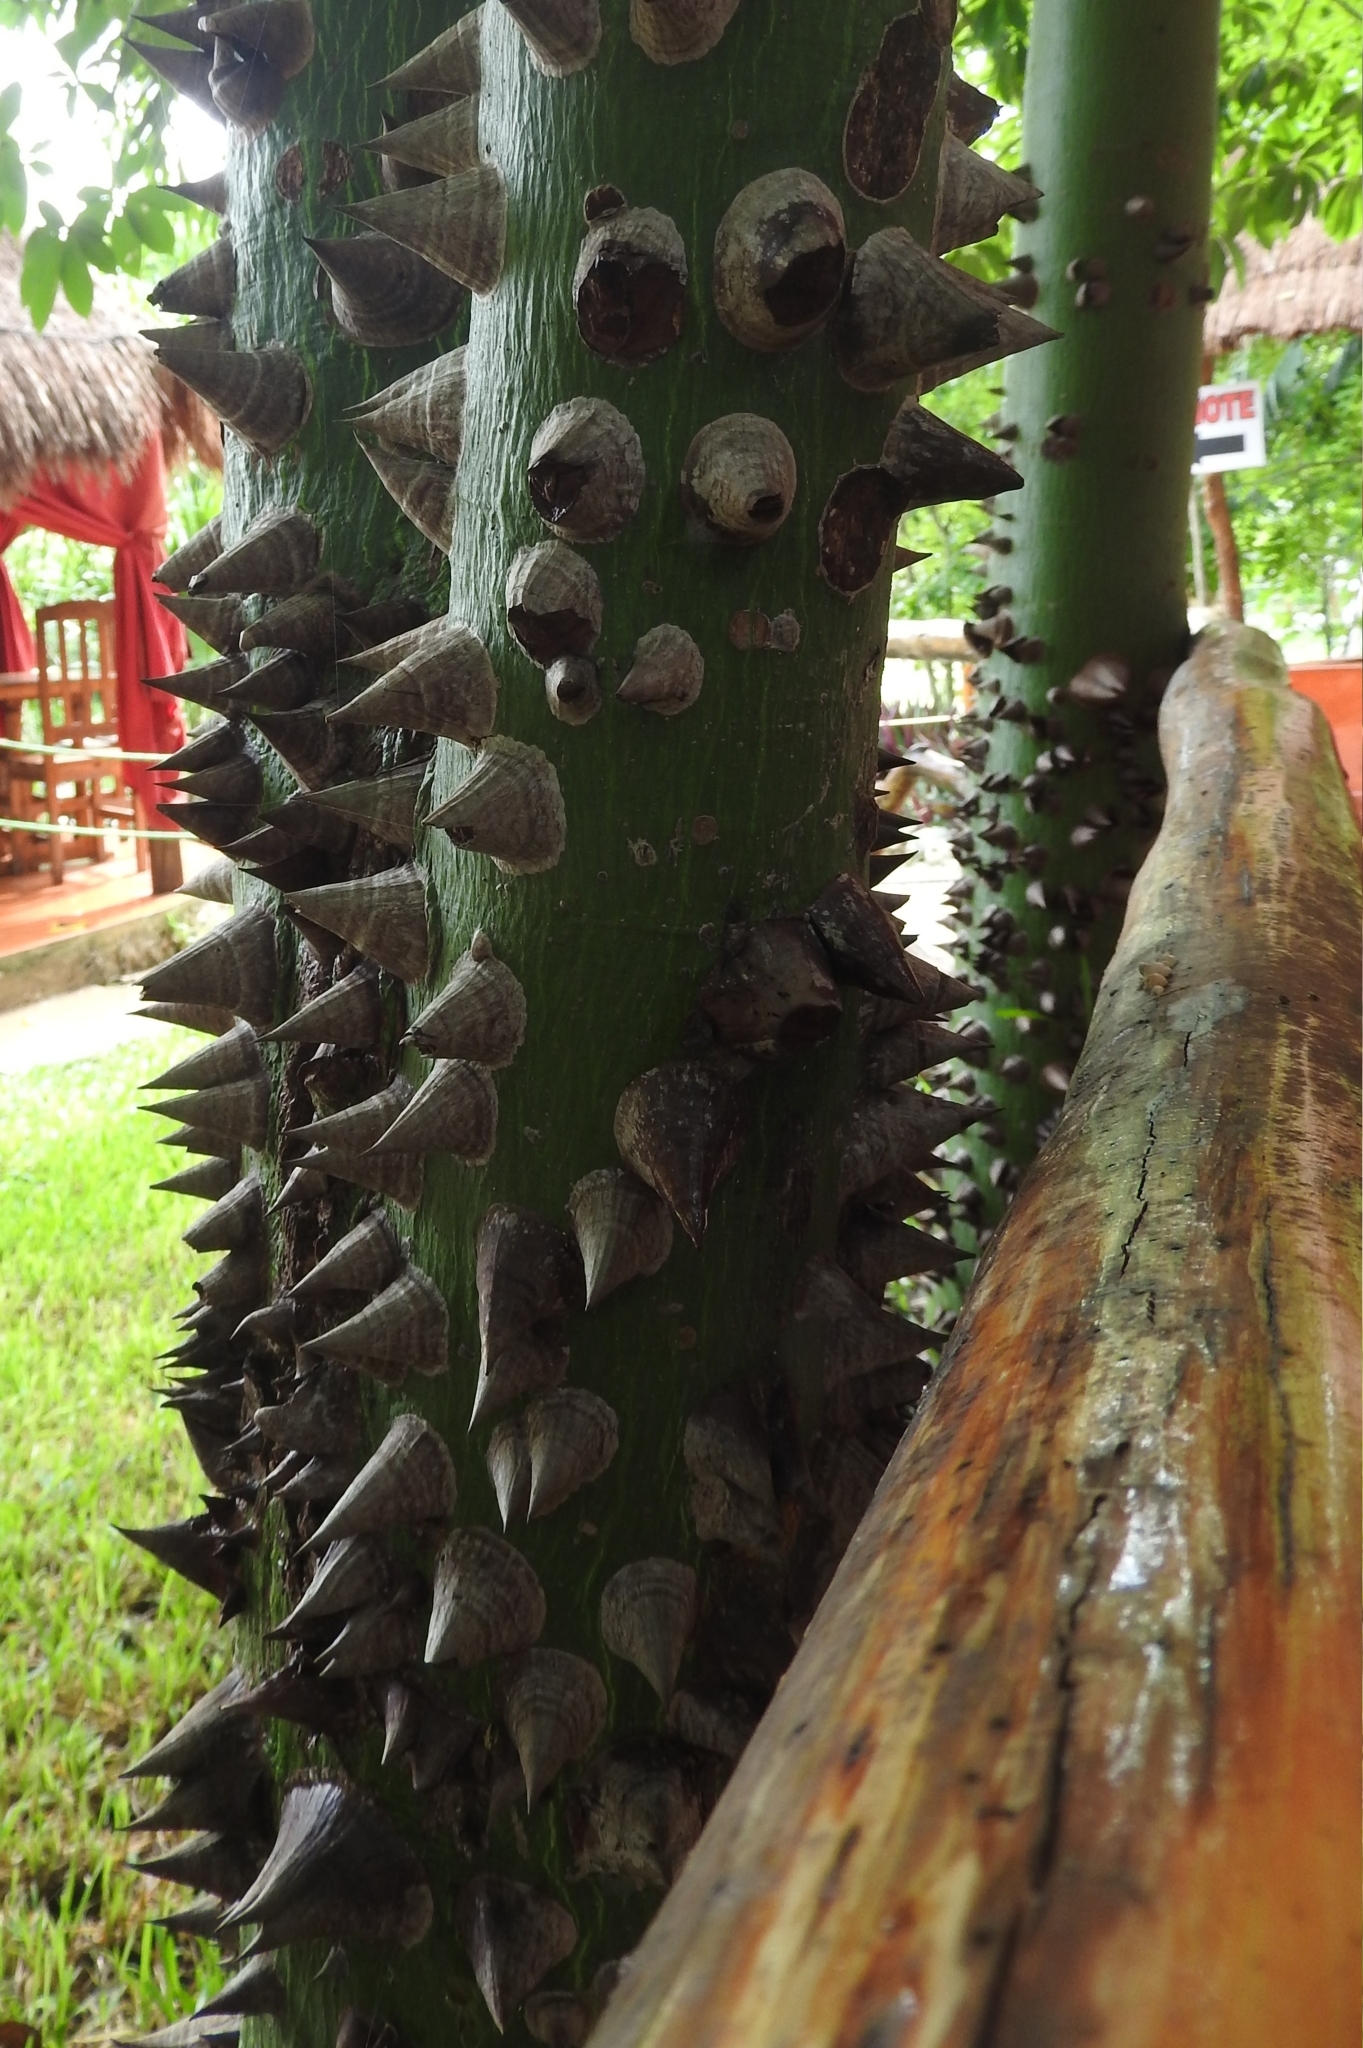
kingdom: Plantae
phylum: Tracheophyta
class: Magnoliopsida
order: Malvales
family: Malvaceae
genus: Ceiba
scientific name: Ceiba pentandra
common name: Kapok
